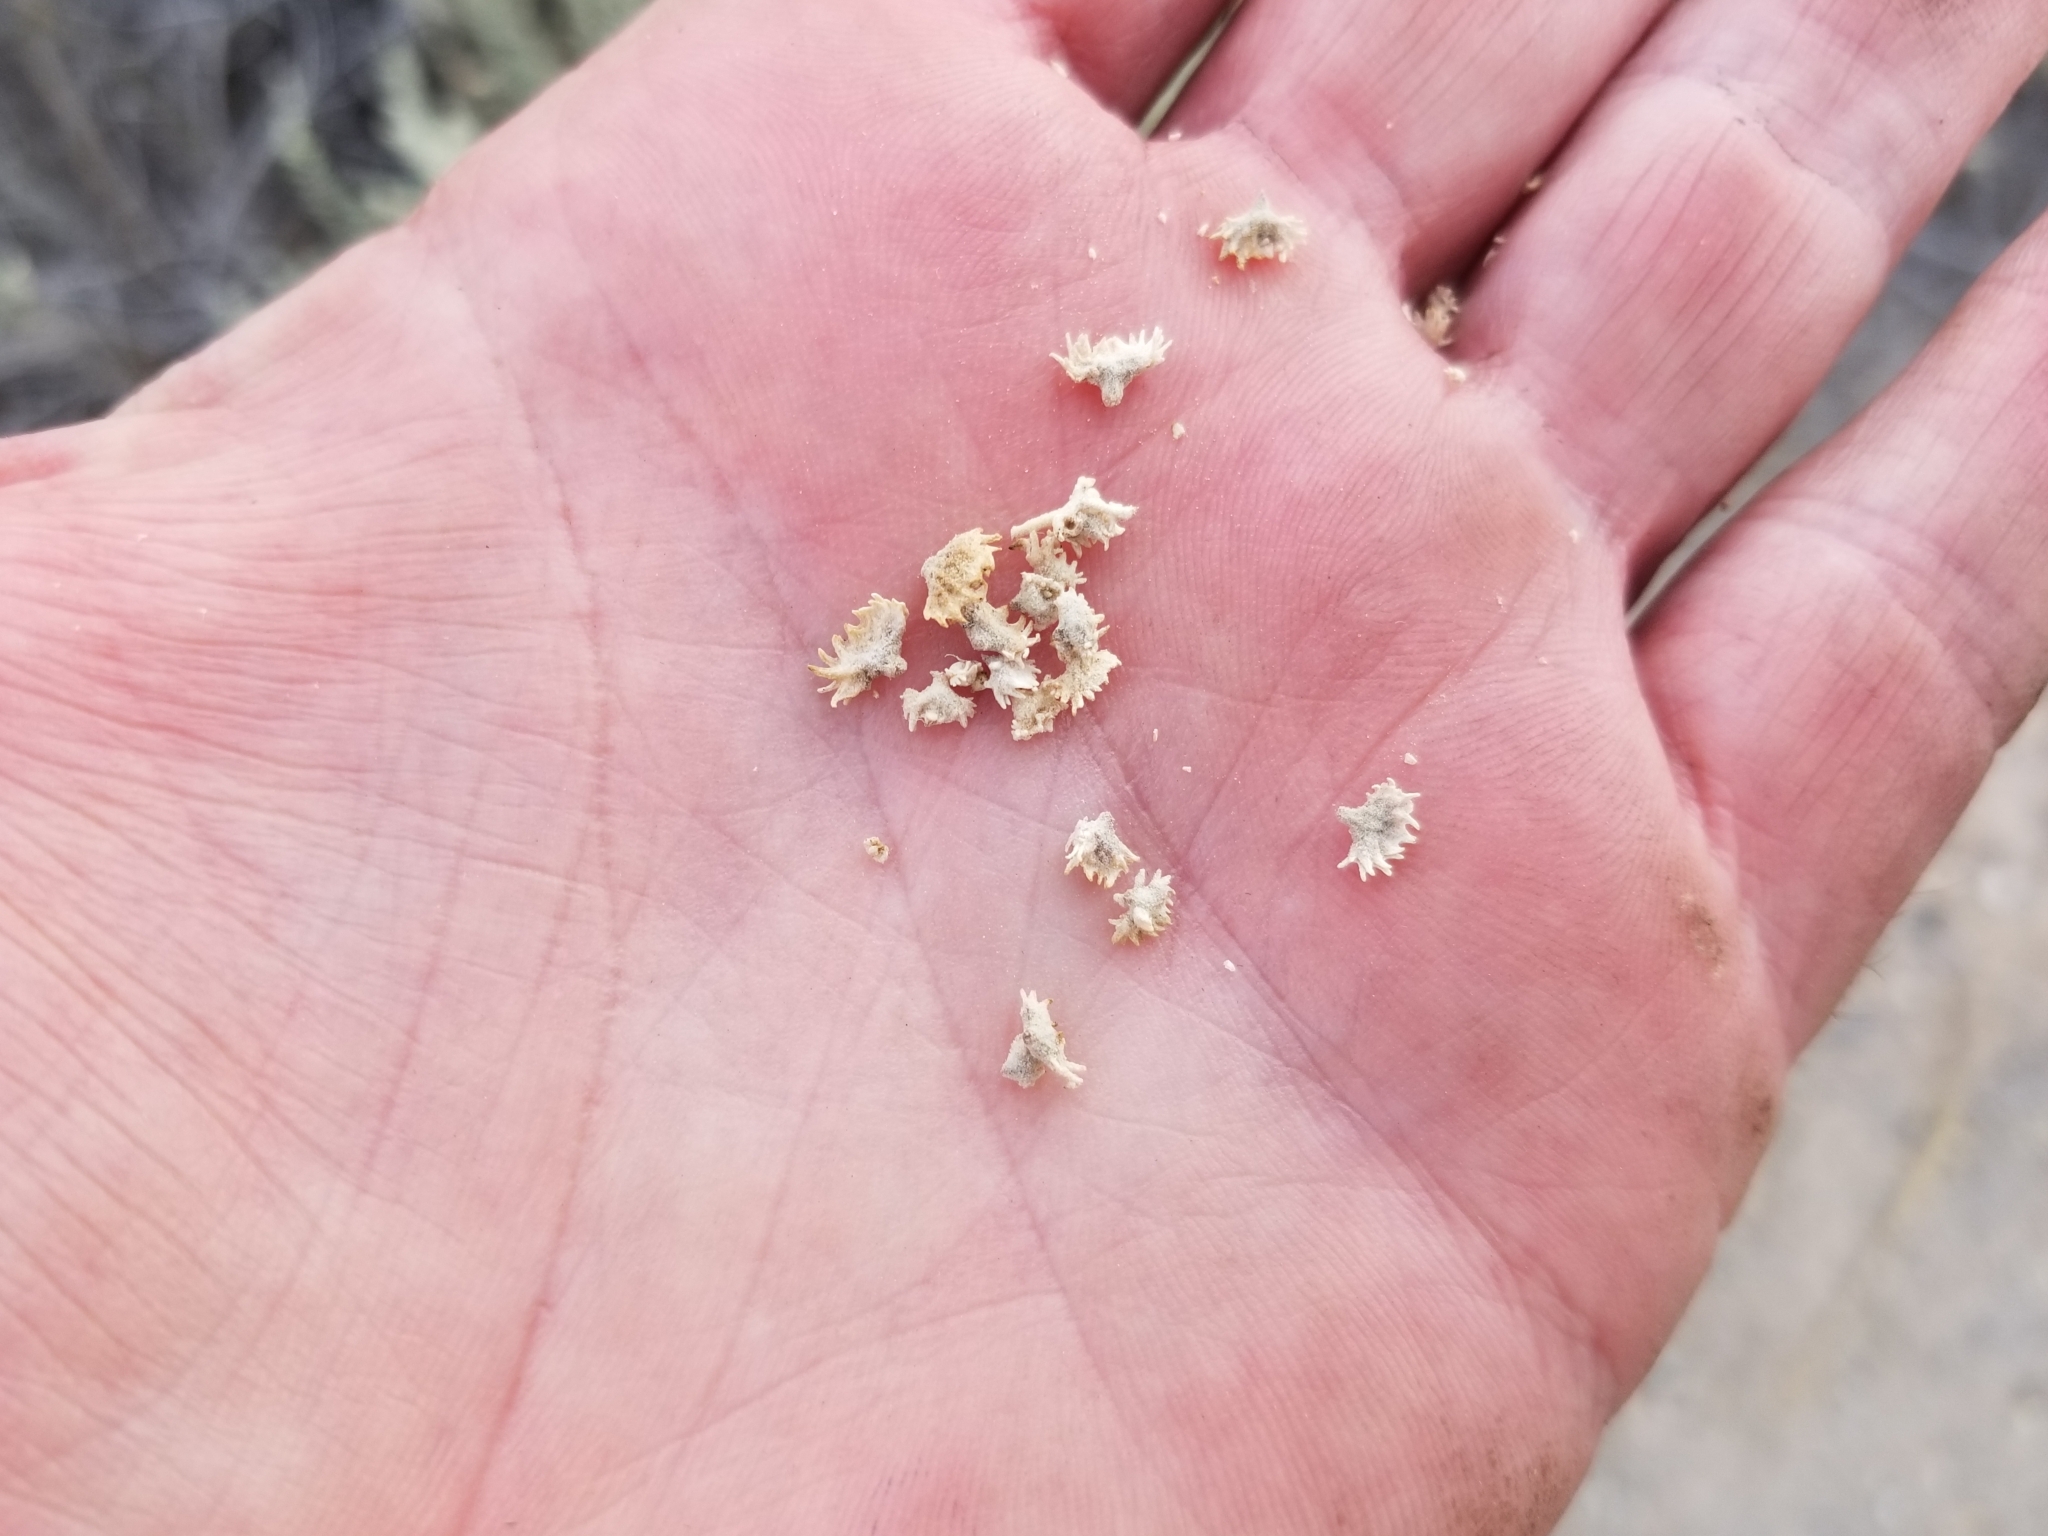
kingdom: Plantae
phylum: Tracheophyta
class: Magnoliopsida
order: Caryophyllales
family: Amaranthaceae
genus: Atriplex
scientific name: Atriplex polycarpa
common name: Desert saltbush
